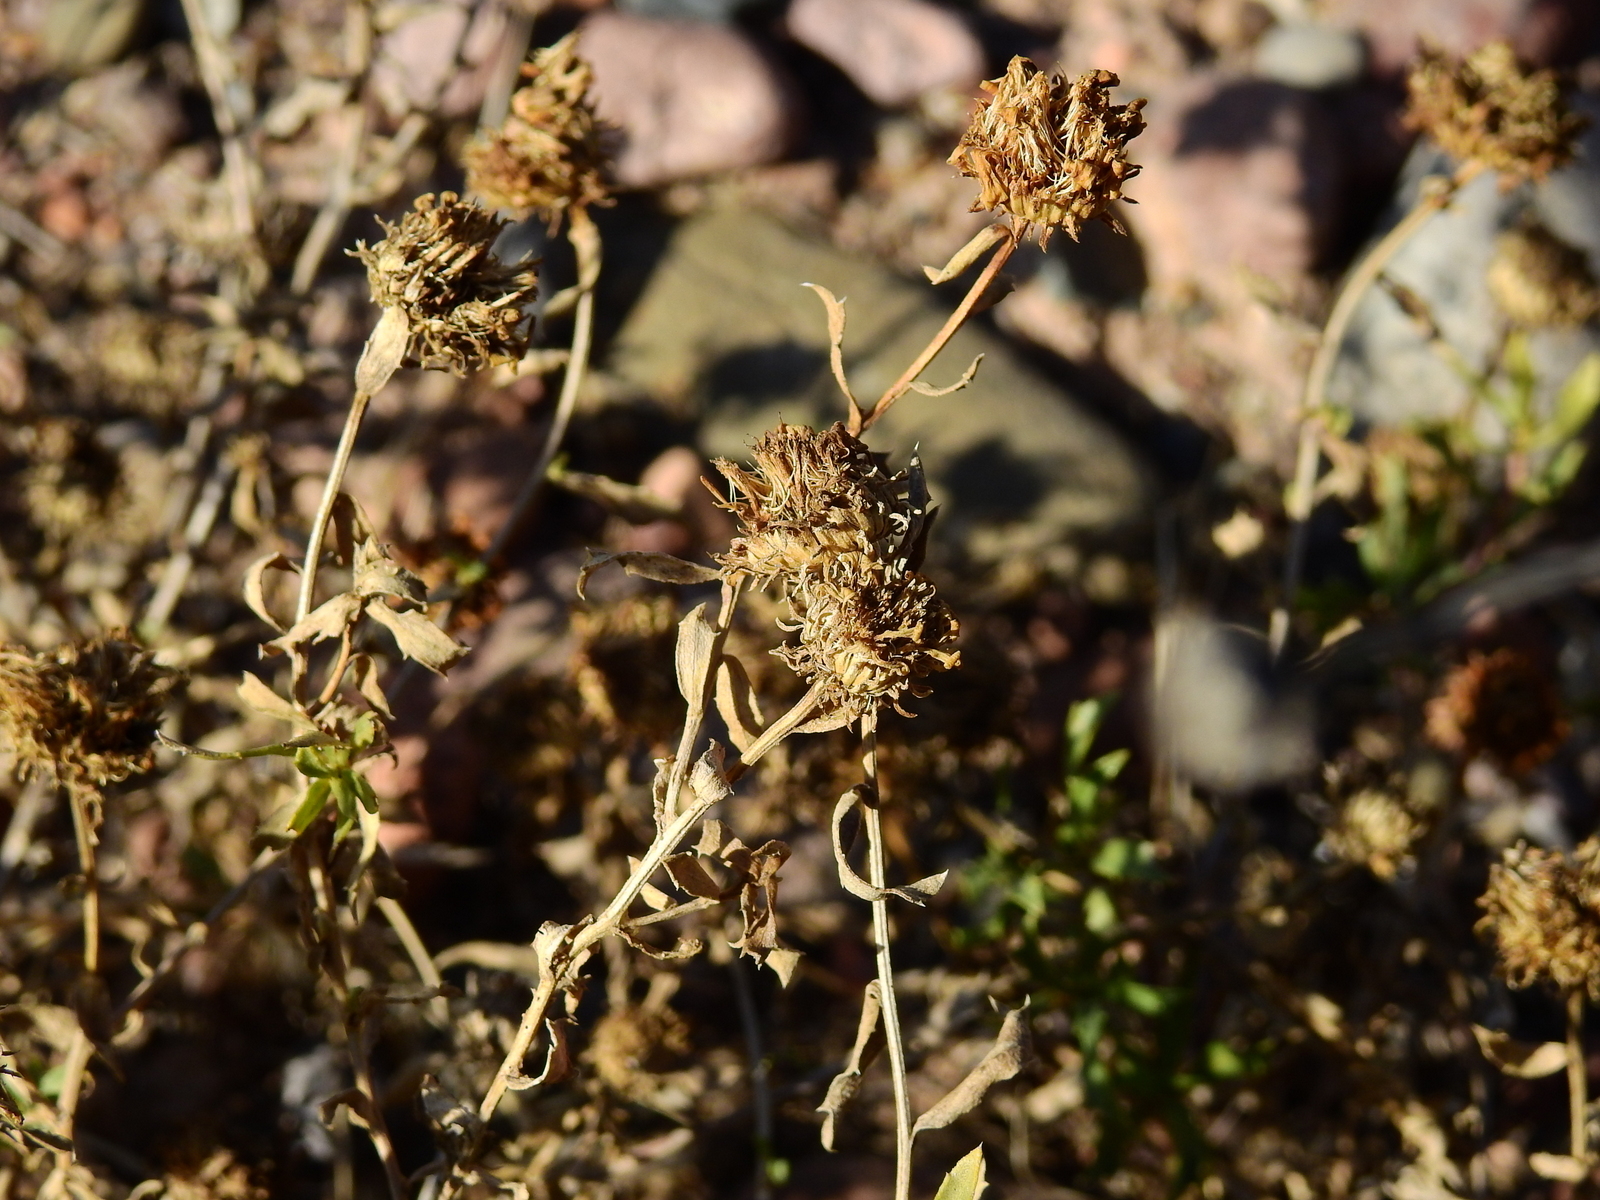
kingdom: Plantae
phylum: Tracheophyta
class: Magnoliopsida
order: Asterales
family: Asteraceae
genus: Grindelia
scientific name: Grindelia pulchella
